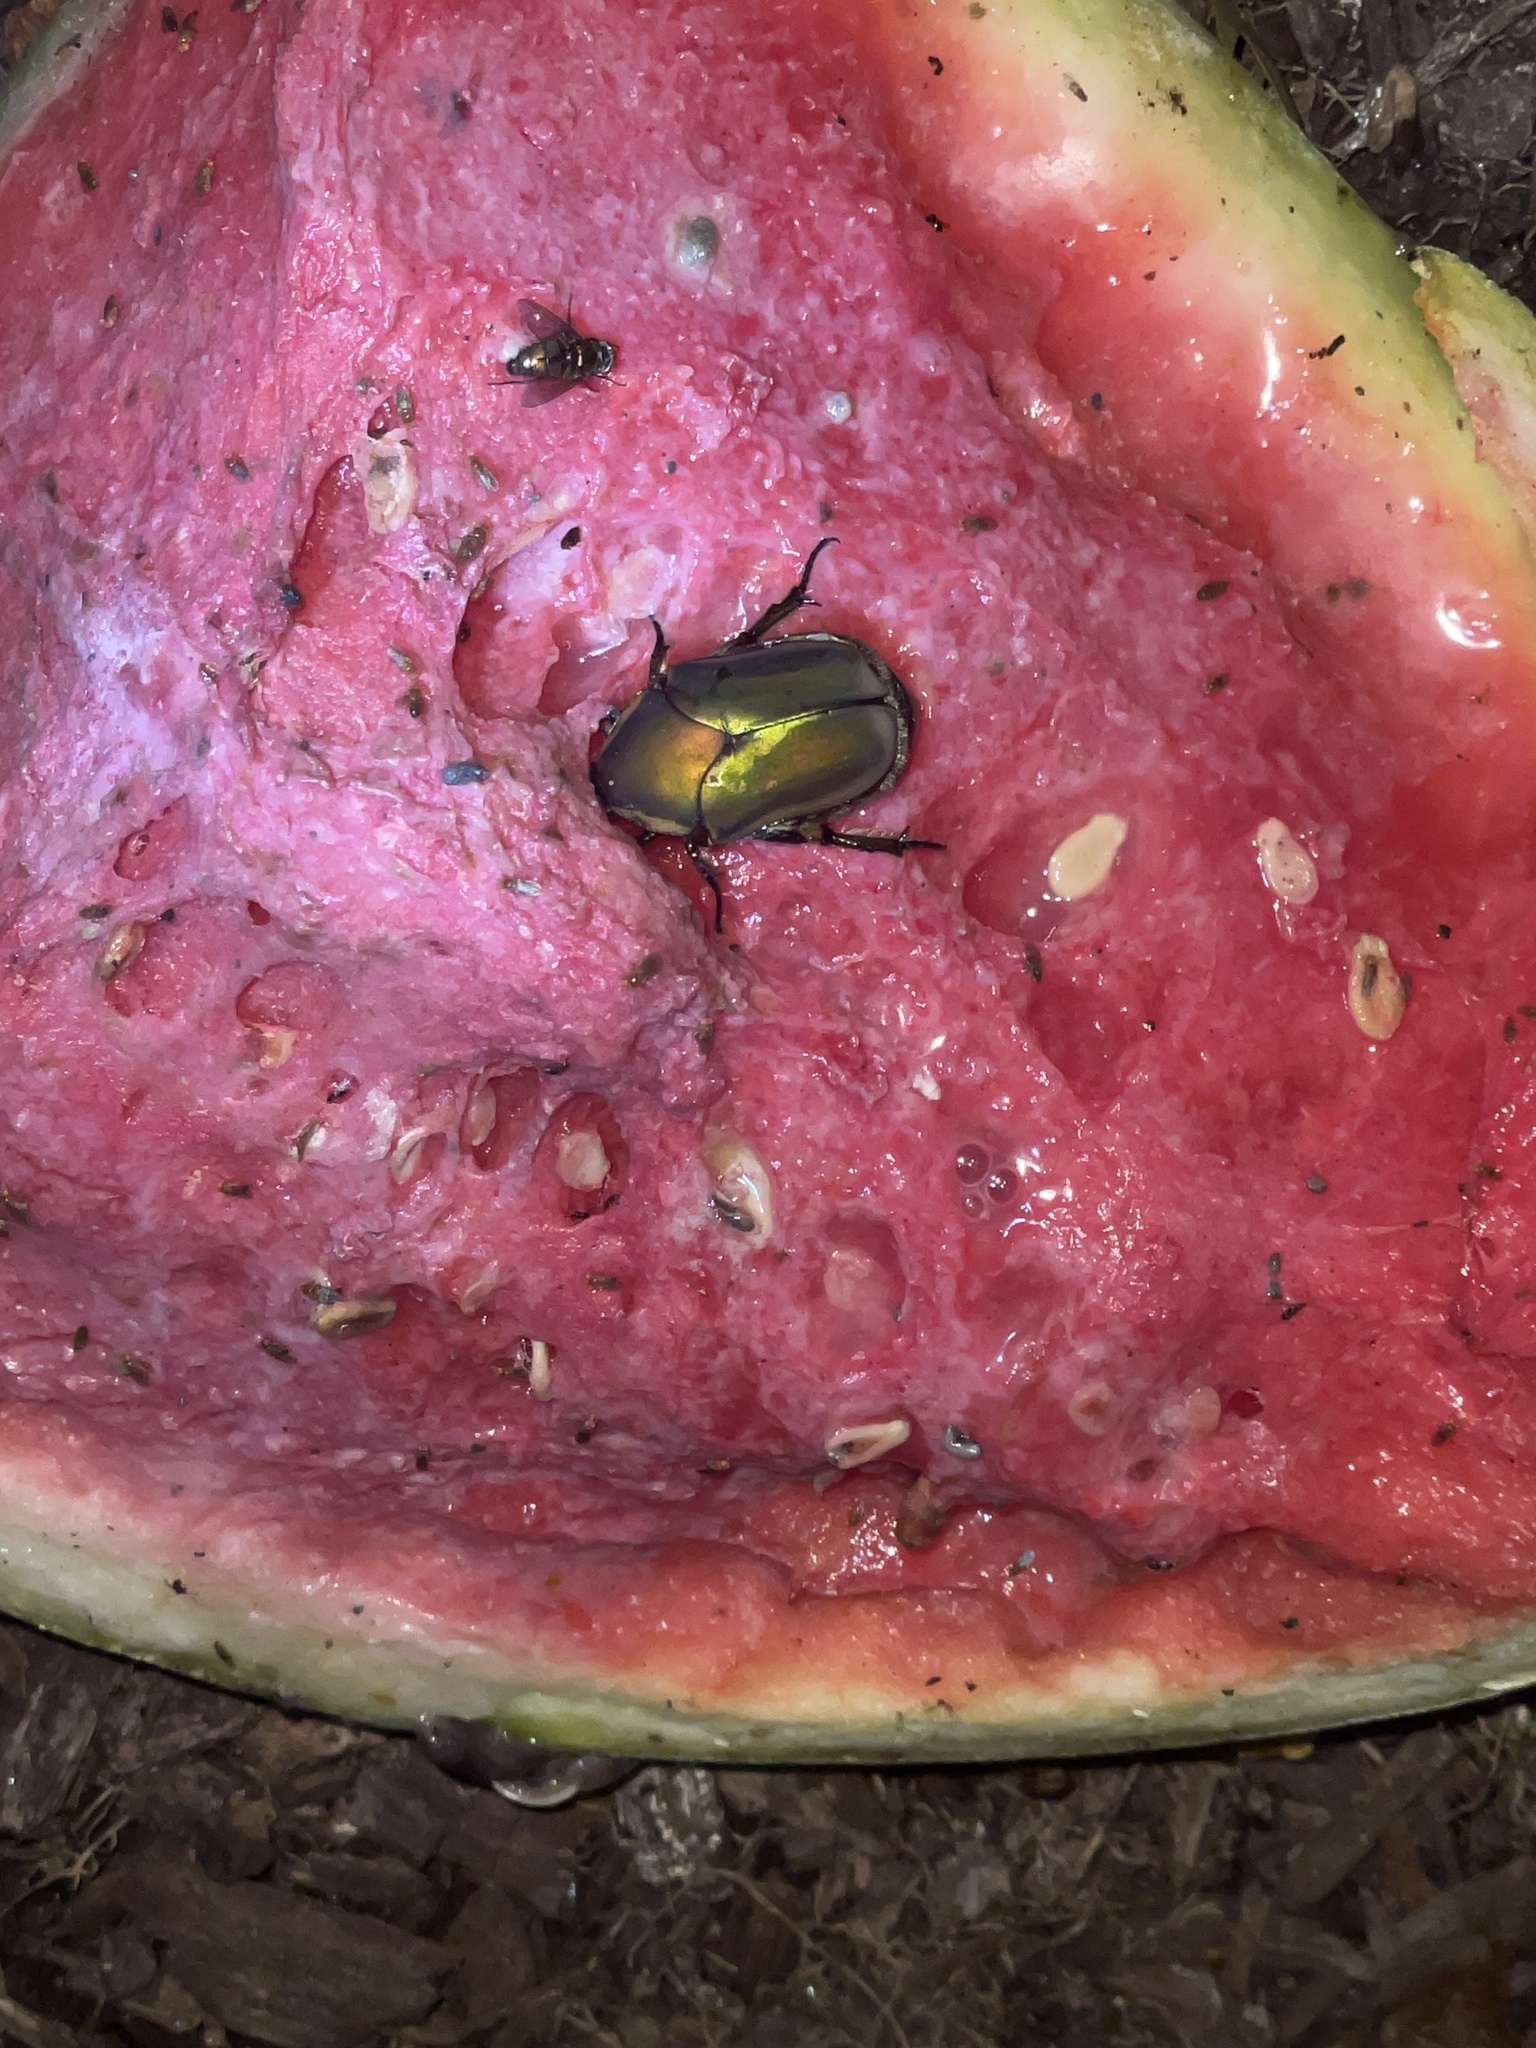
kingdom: Animalia
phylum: Arthropoda
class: Insecta
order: Coleoptera
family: Scarabaeidae
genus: Cotinis
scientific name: Cotinis nitida
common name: Common green june beetle
